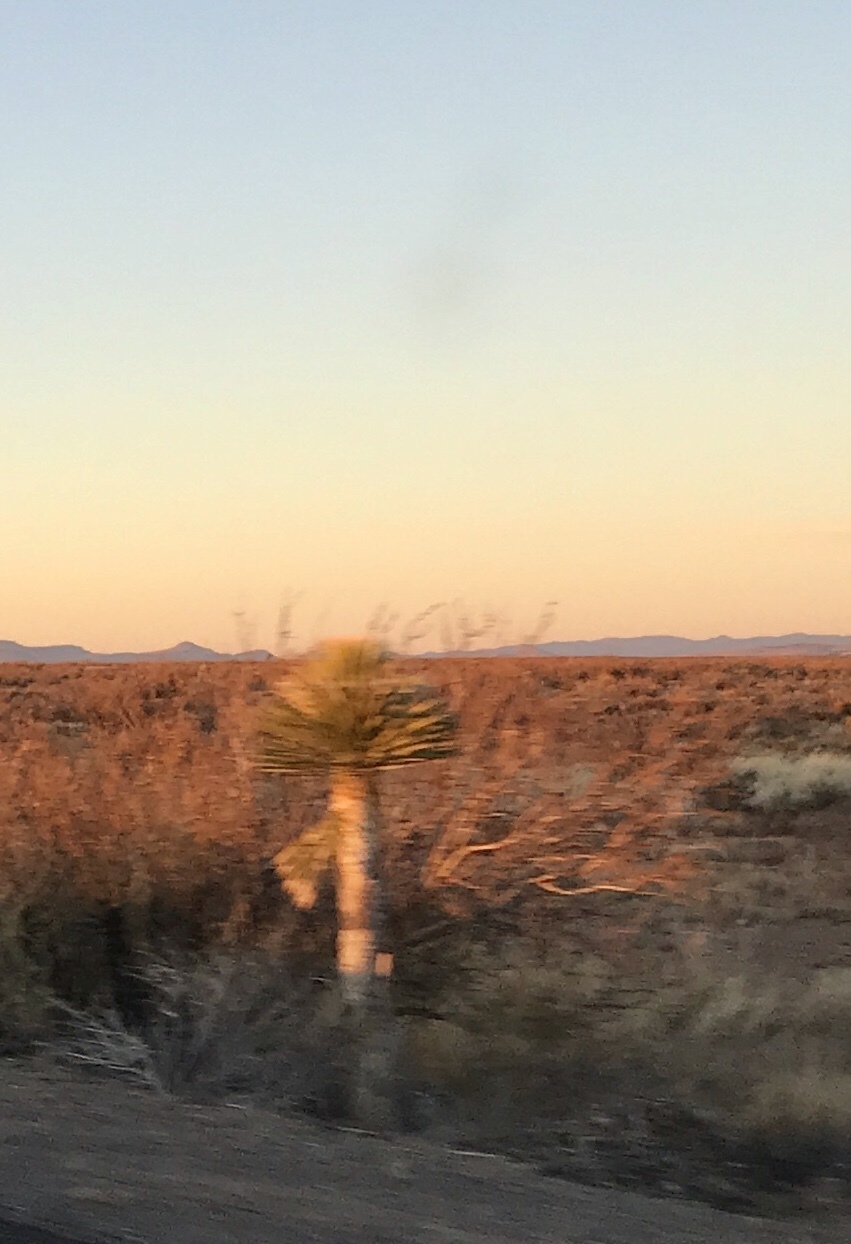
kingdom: Plantae
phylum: Tracheophyta
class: Liliopsida
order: Asparagales
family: Asparagaceae
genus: Yucca
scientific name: Yucca elata
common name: Palmella
